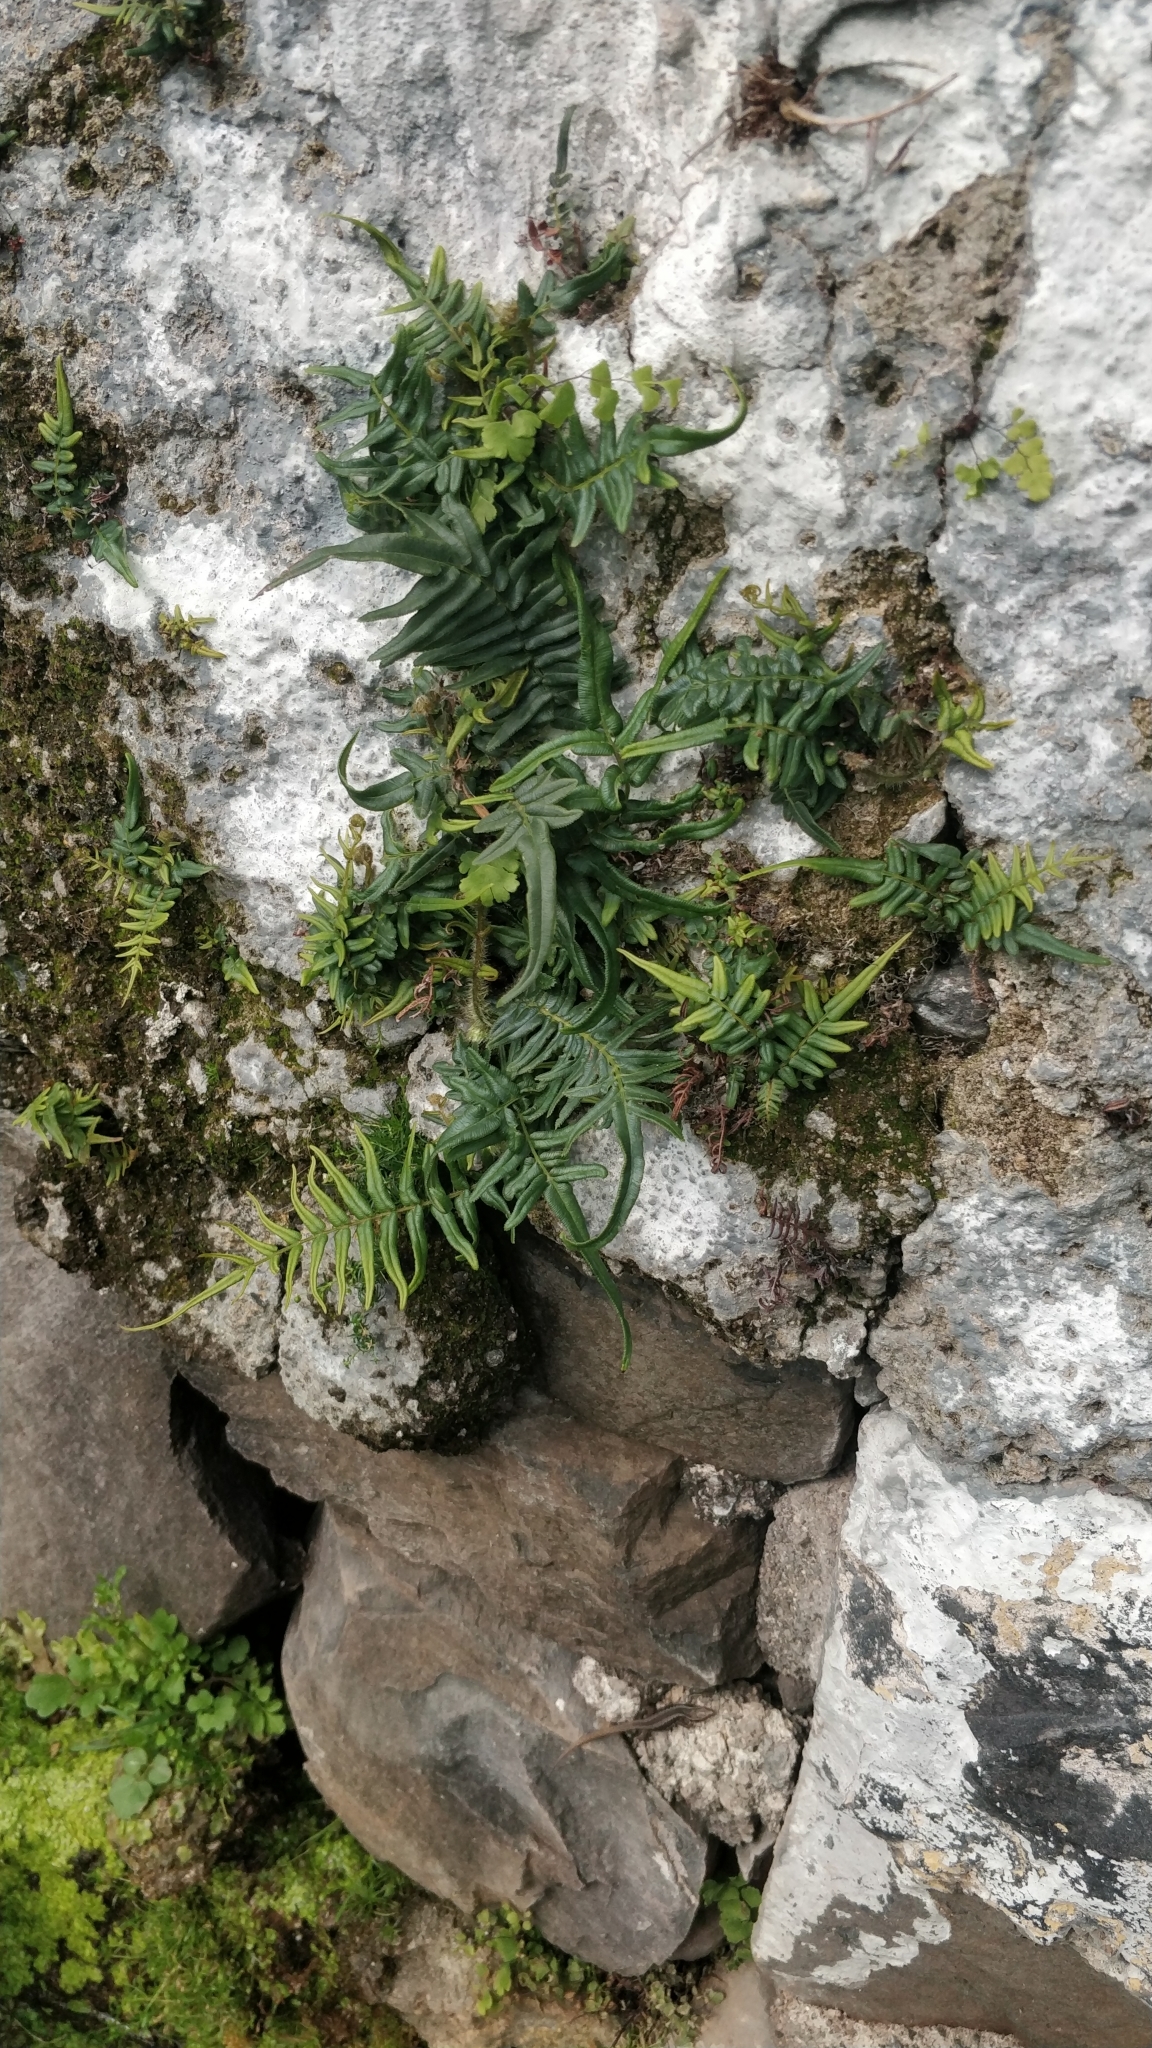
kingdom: Plantae
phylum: Tracheophyta
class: Polypodiopsida
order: Polypodiales
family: Pteridaceae
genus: Pteris
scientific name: Pteris vittata
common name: Ladder brake
